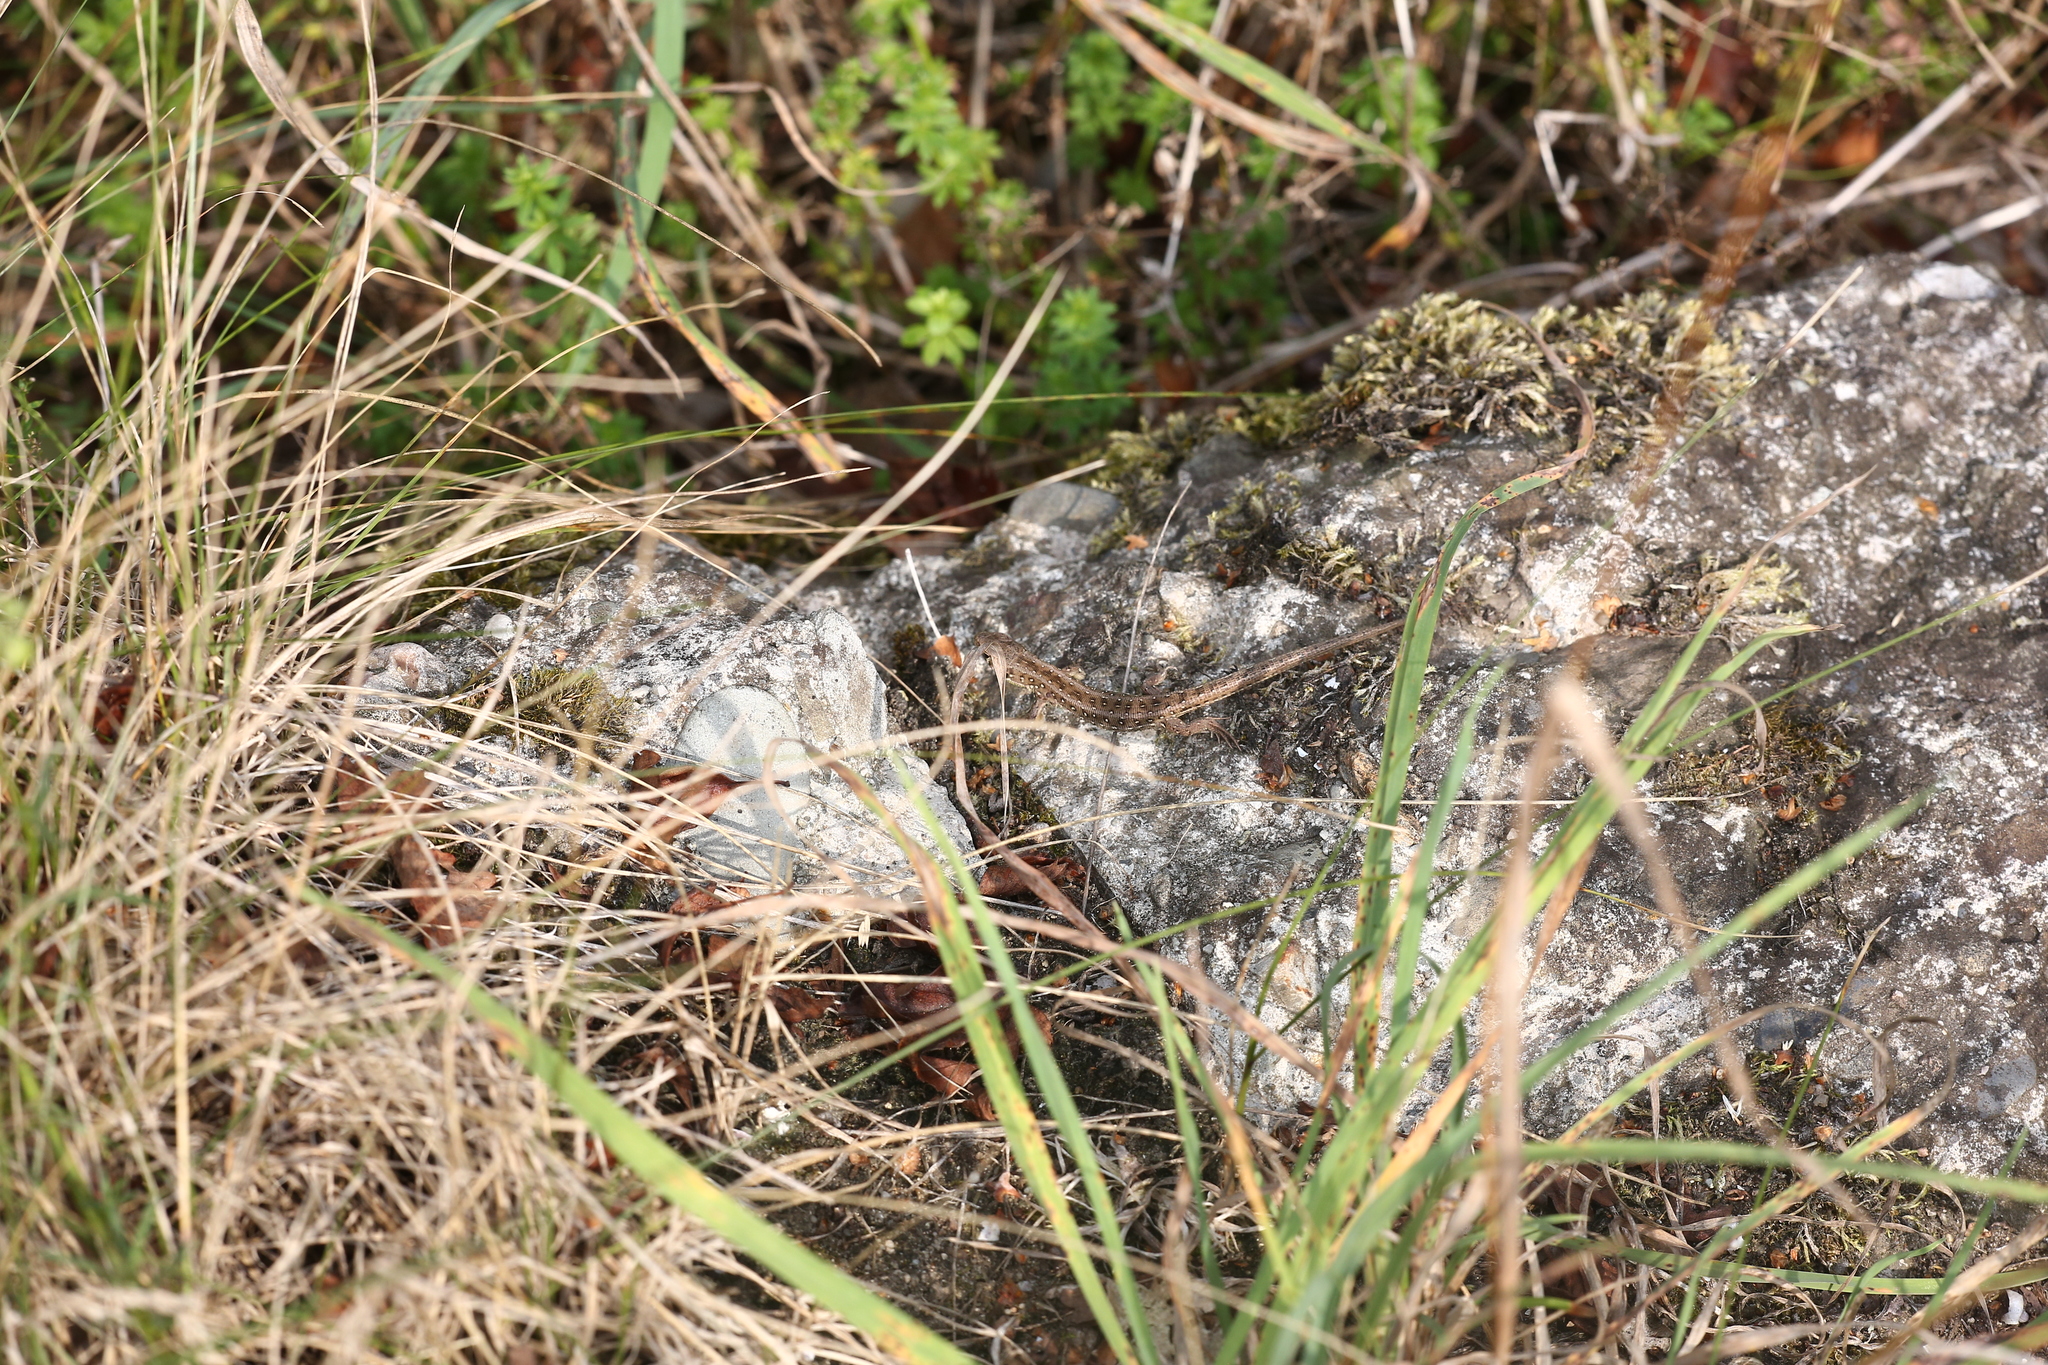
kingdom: Animalia
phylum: Chordata
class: Squamata
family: Lacertidae
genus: Lacerta
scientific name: Lacerta agilis
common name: Sand lizard
